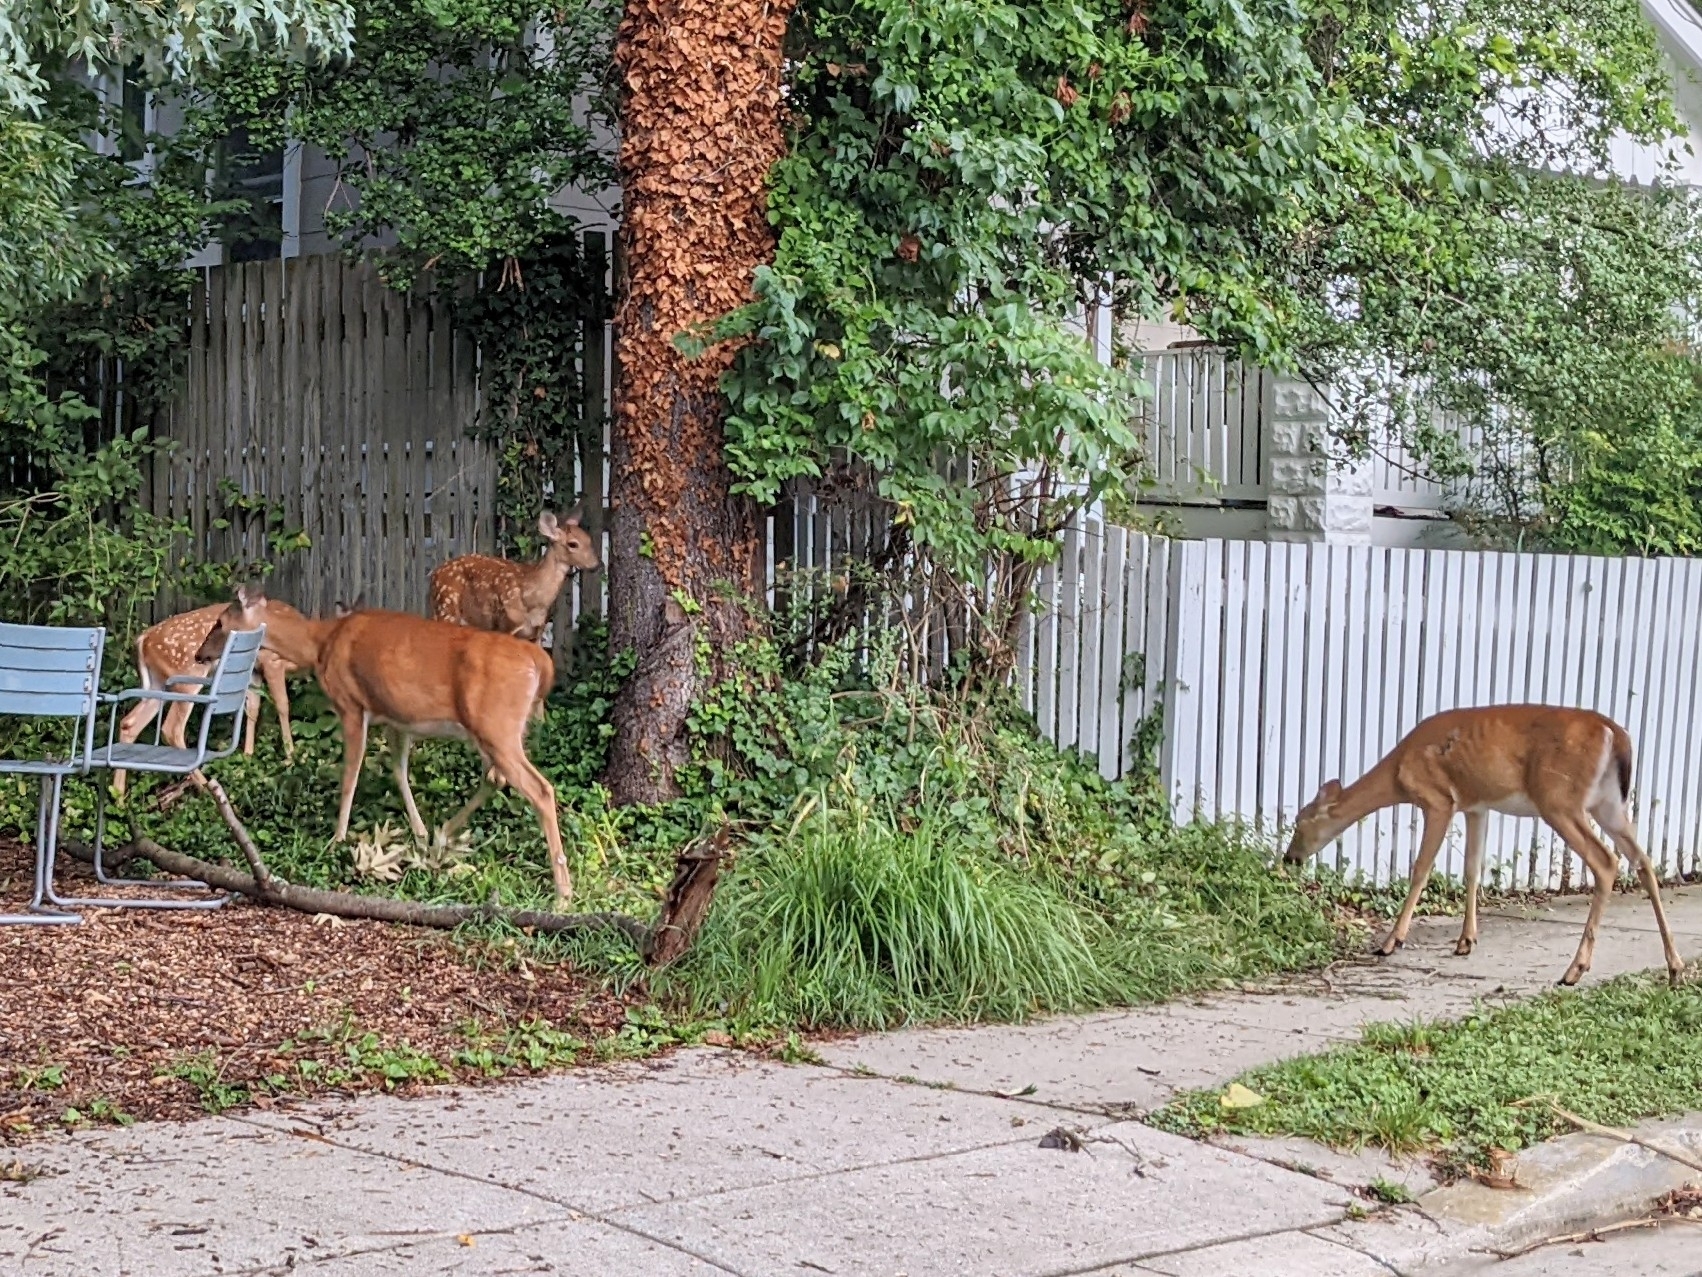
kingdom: Animalia
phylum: Chordata
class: Mammalia
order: Artiodactyla
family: Cervidae
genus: Odocoileus
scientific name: Odocoileus virginianus
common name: White-tailed deer
